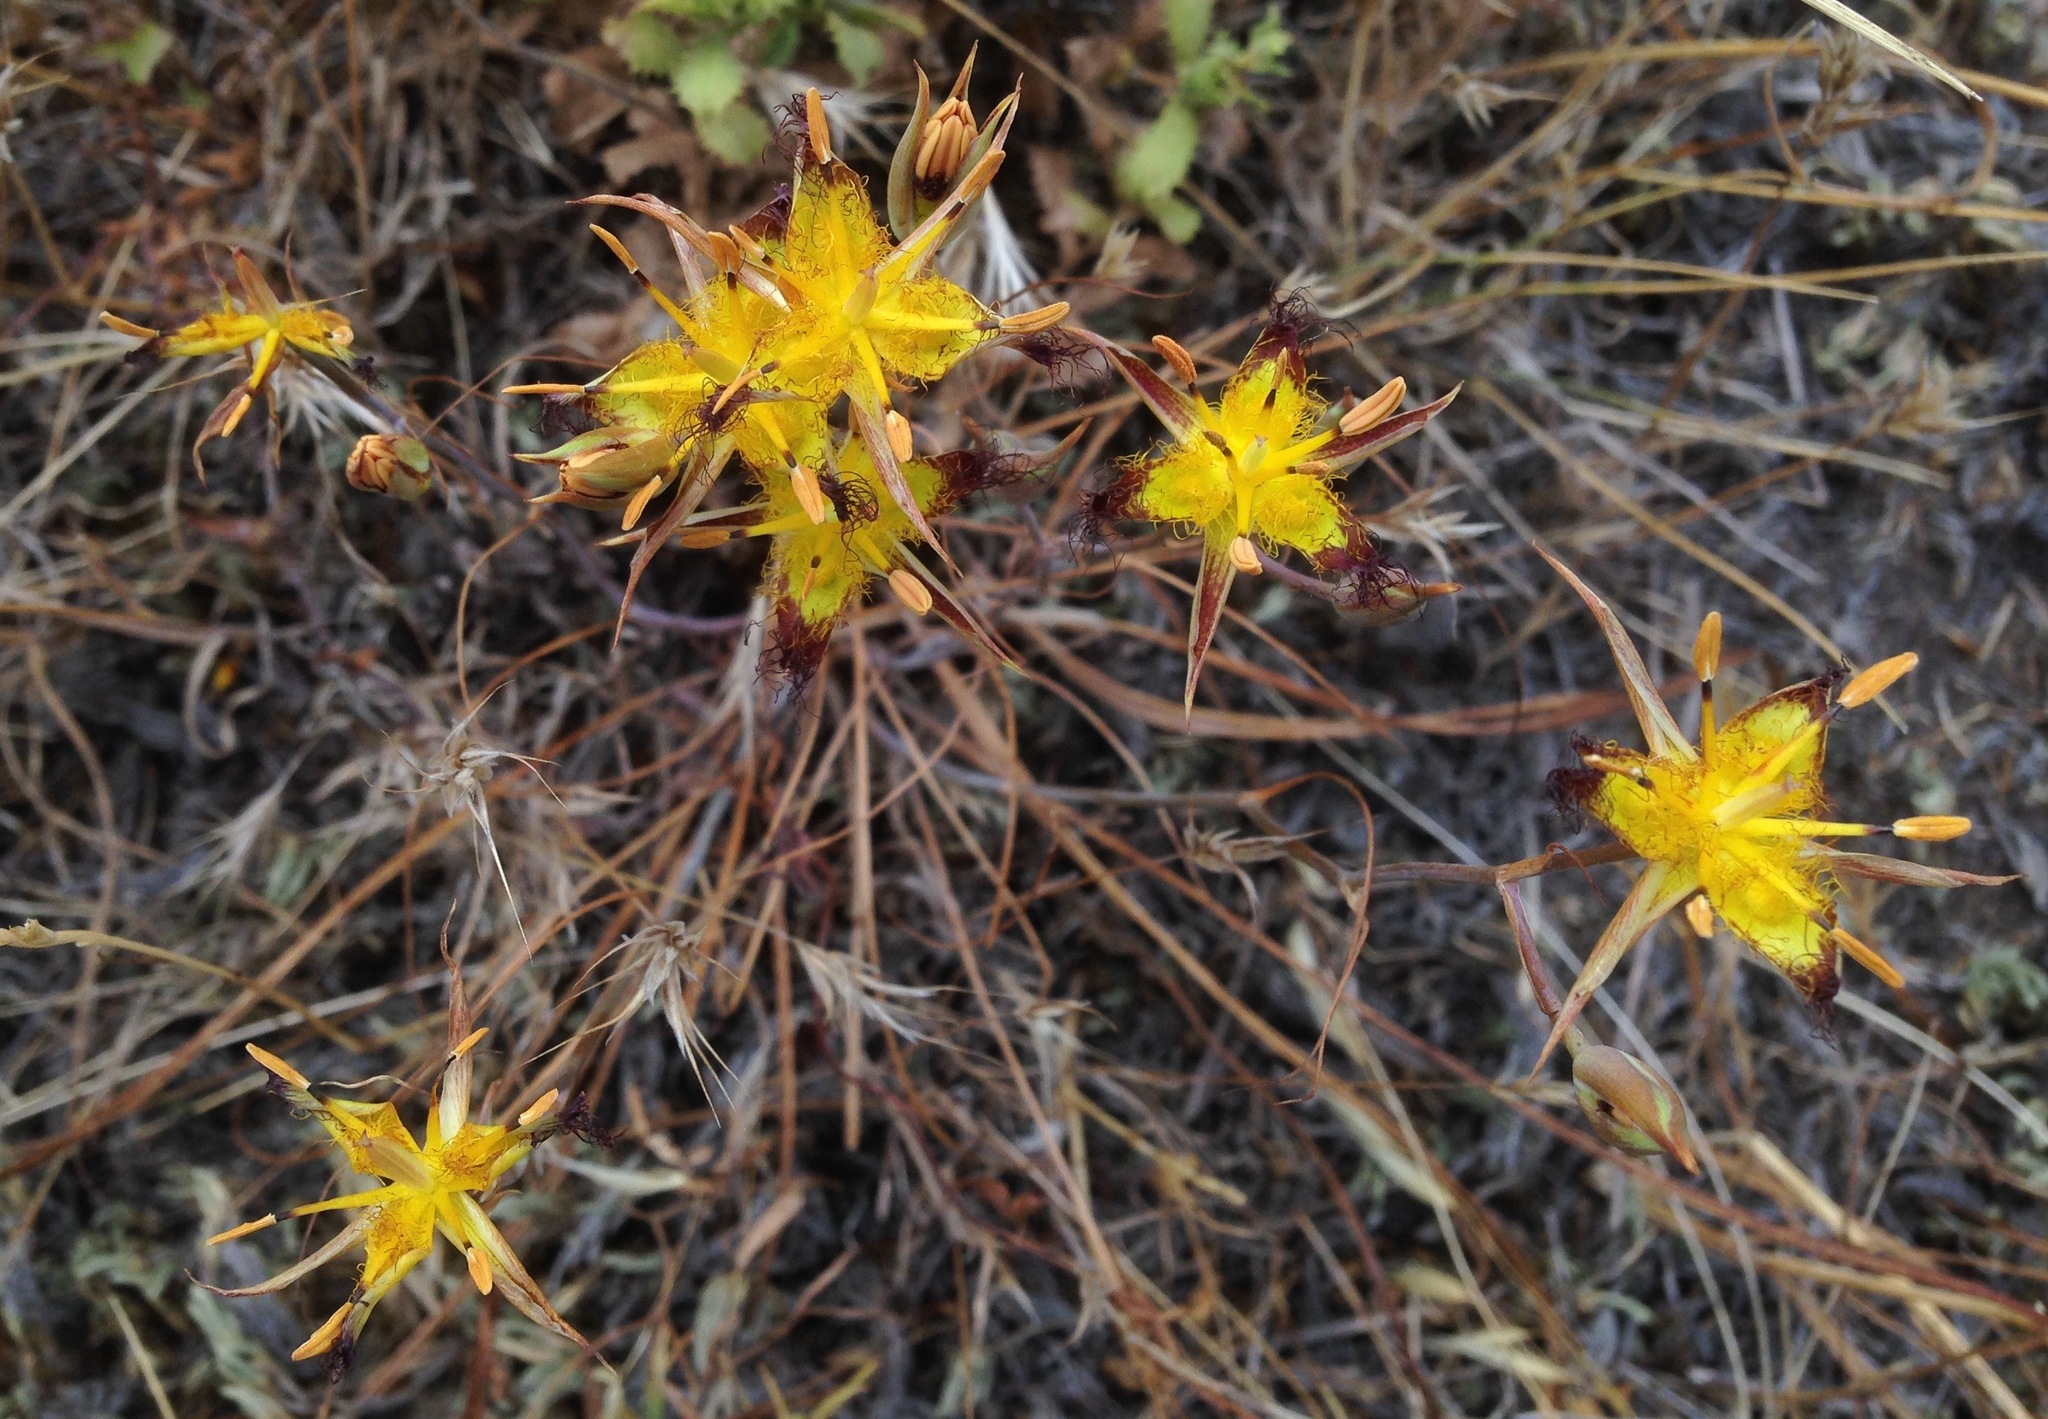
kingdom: Plantae
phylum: Tracheophyta
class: Liliopsida
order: Liliales
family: Liliaceae
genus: Calochortus
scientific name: Calochortus obispoensis
